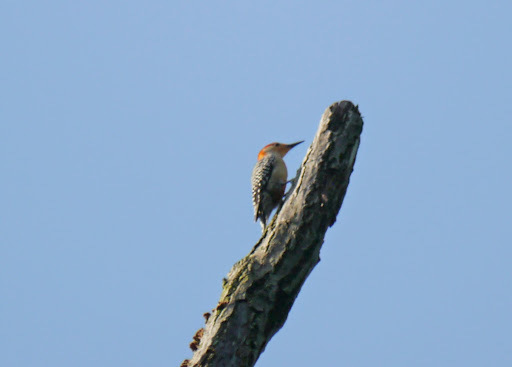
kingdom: Animalia
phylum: Chordata
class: Aves
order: Piciformes
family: Picidae
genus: Melanerpes
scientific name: Melanerpes carolinus
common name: Red-bellied woodpecker
